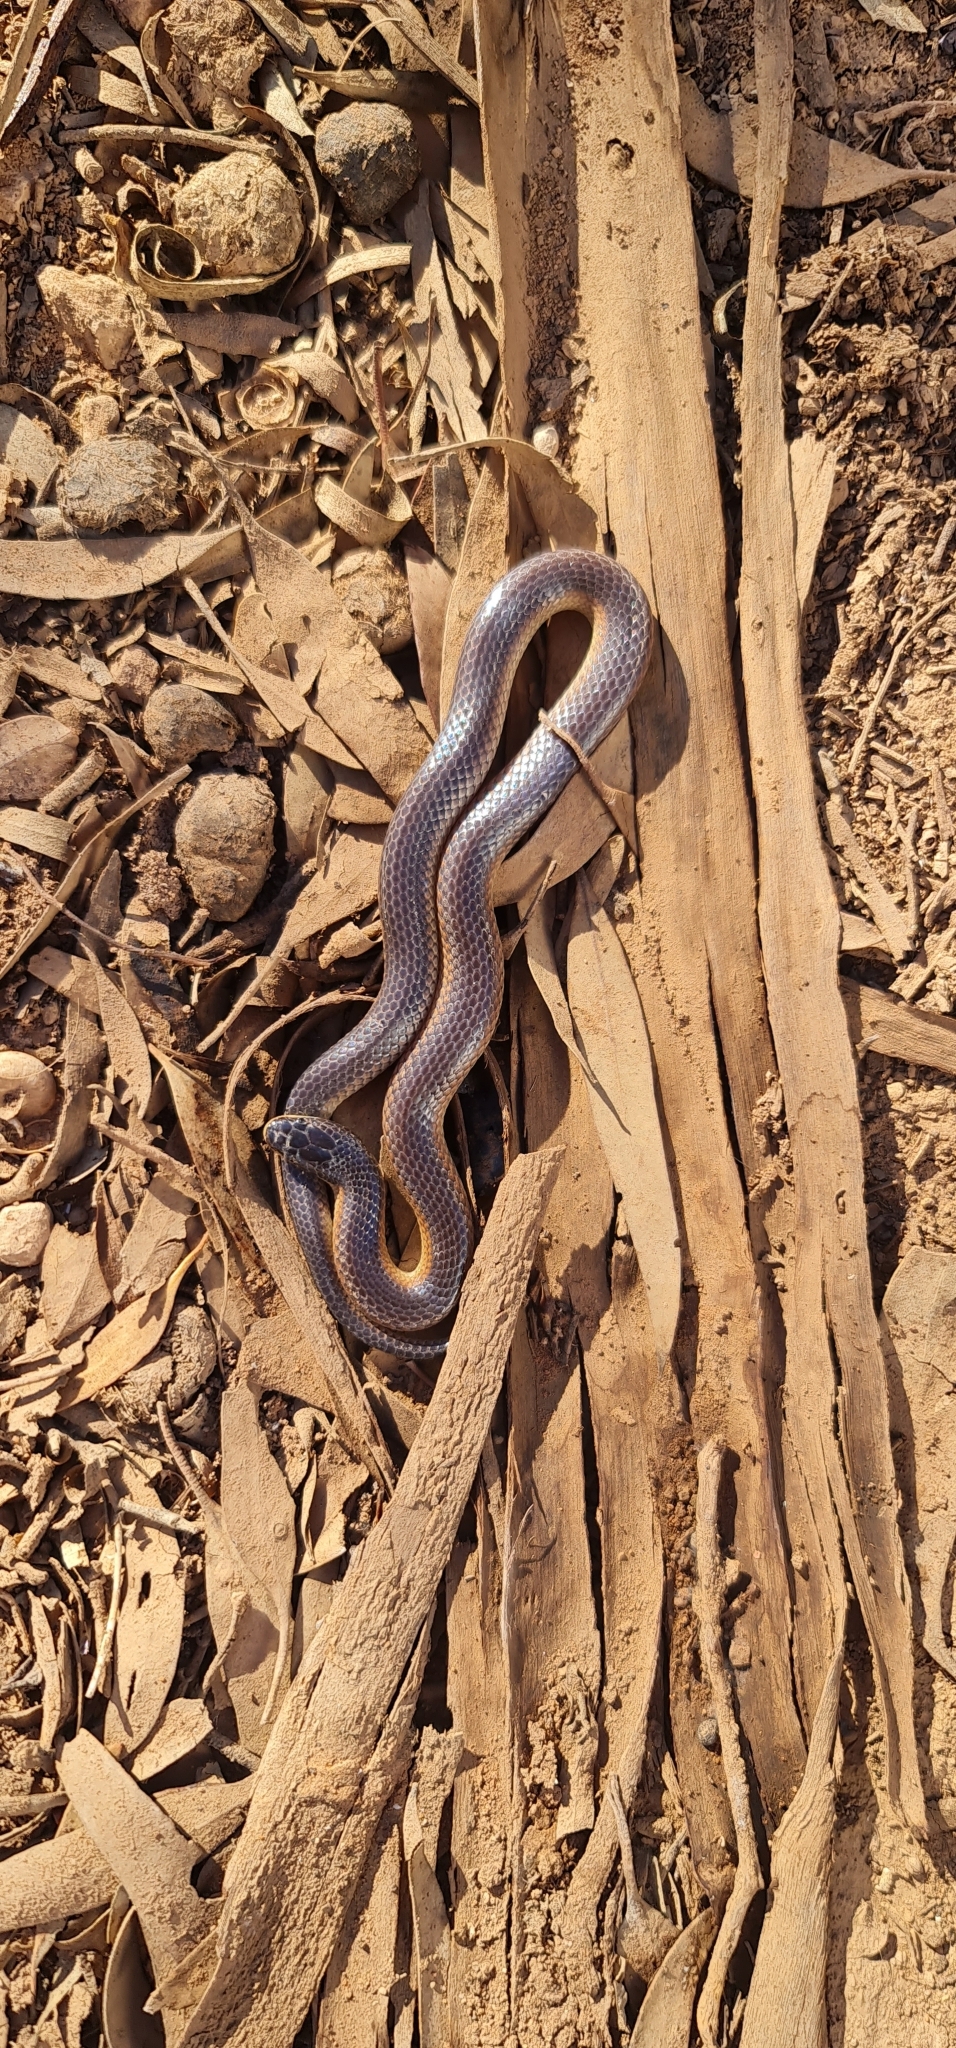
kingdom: Animalia
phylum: Chordata
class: Squamata
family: Elapidae
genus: Suta
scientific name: Suta nigriceps
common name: Mallee black-backed snake
